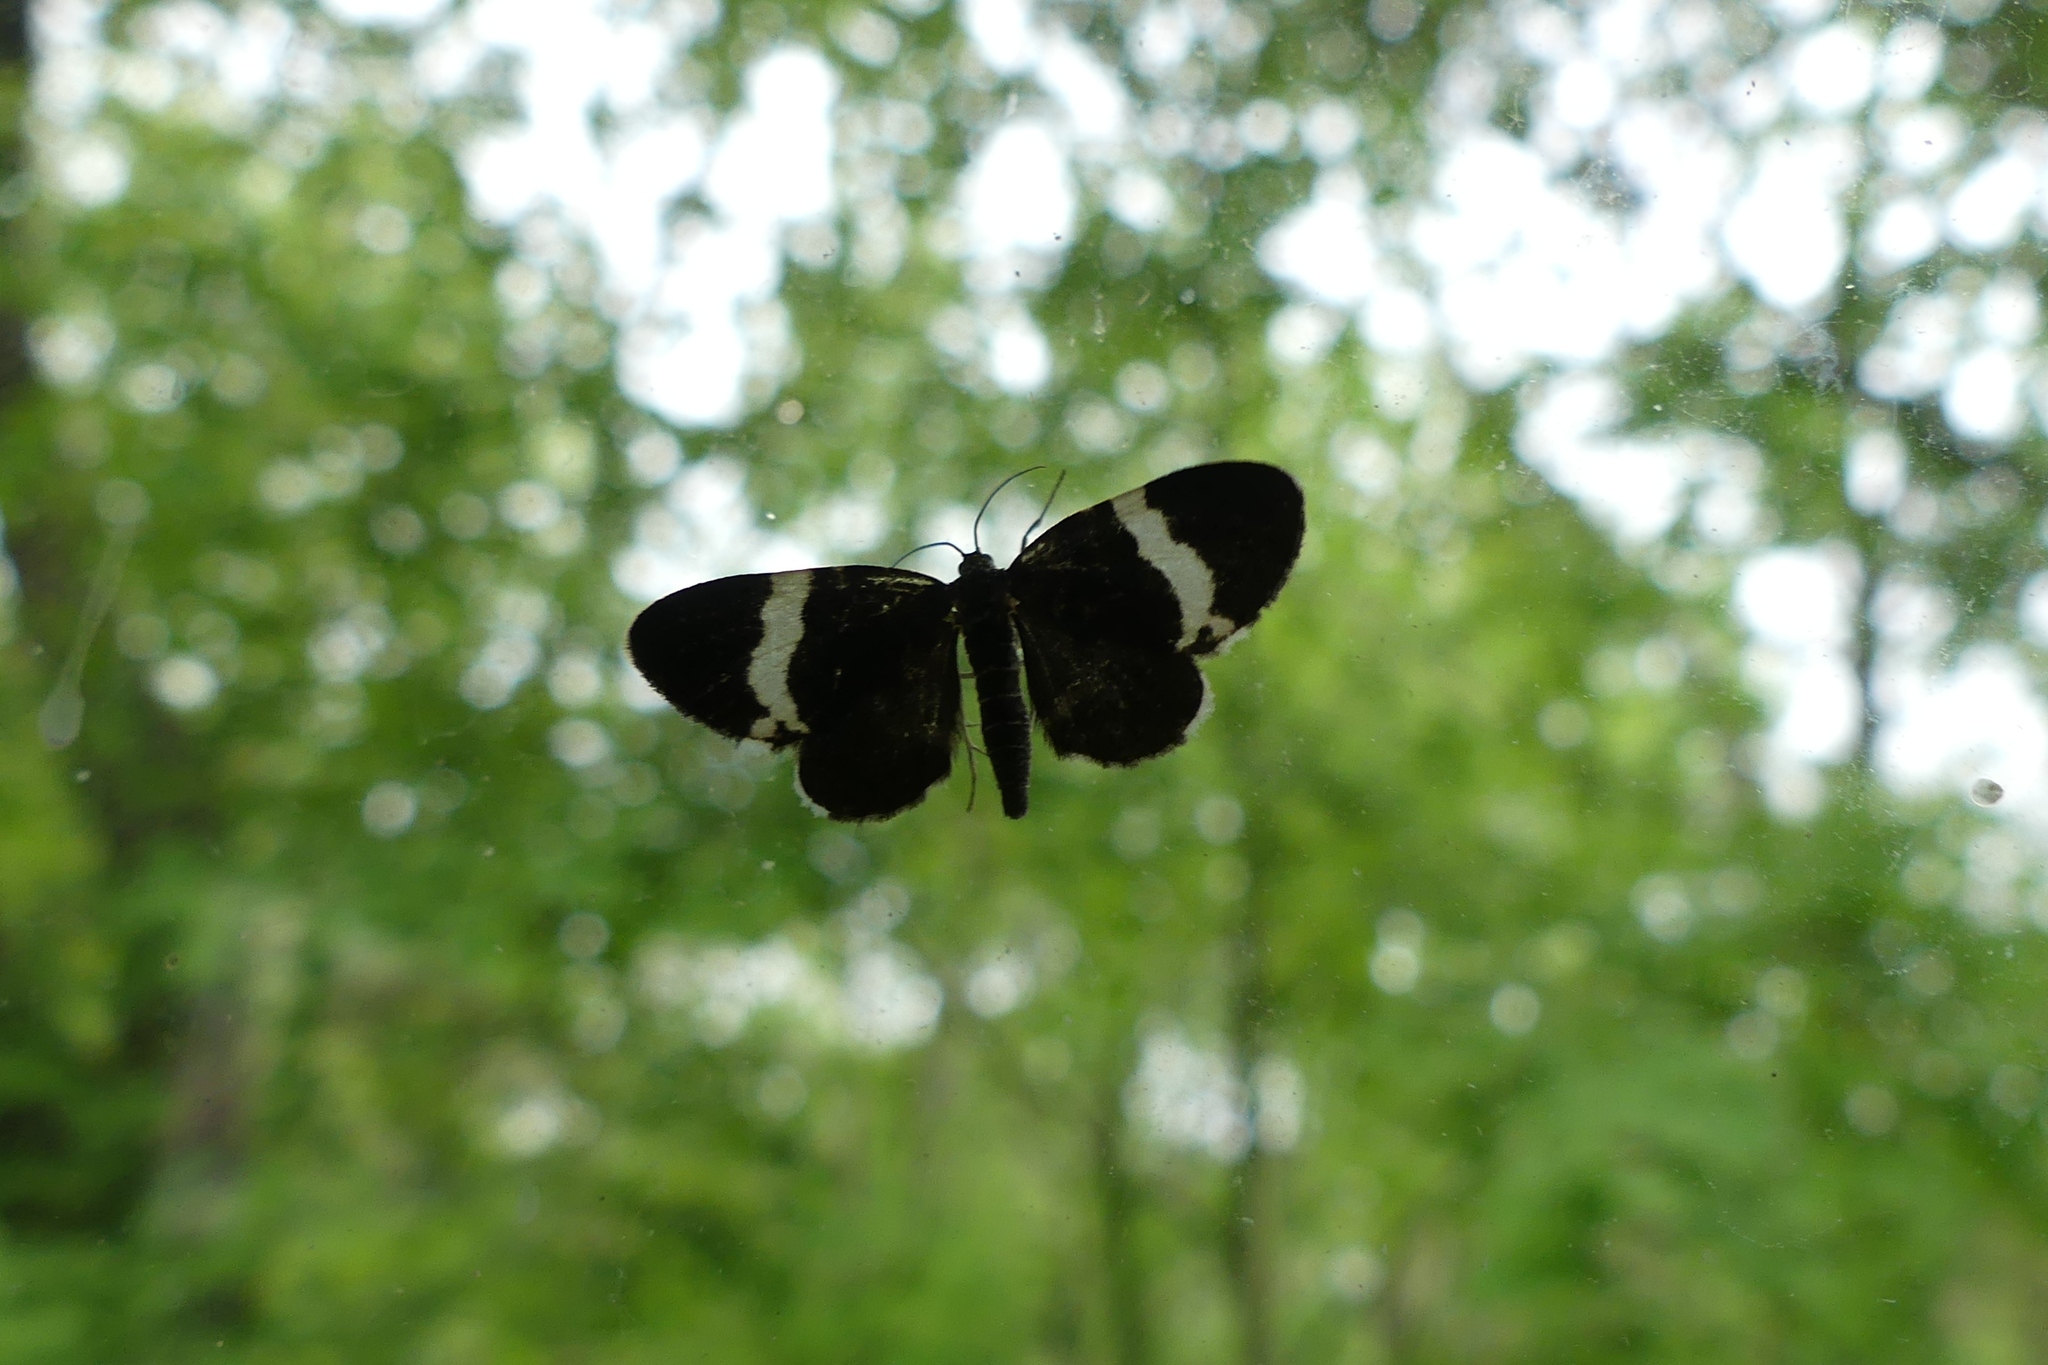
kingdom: Animalia
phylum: Arthropoda
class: Insecta
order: Lepidoptera
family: Geometridae
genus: Trichodezia
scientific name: Trichodezia albovittata
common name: White striped black
